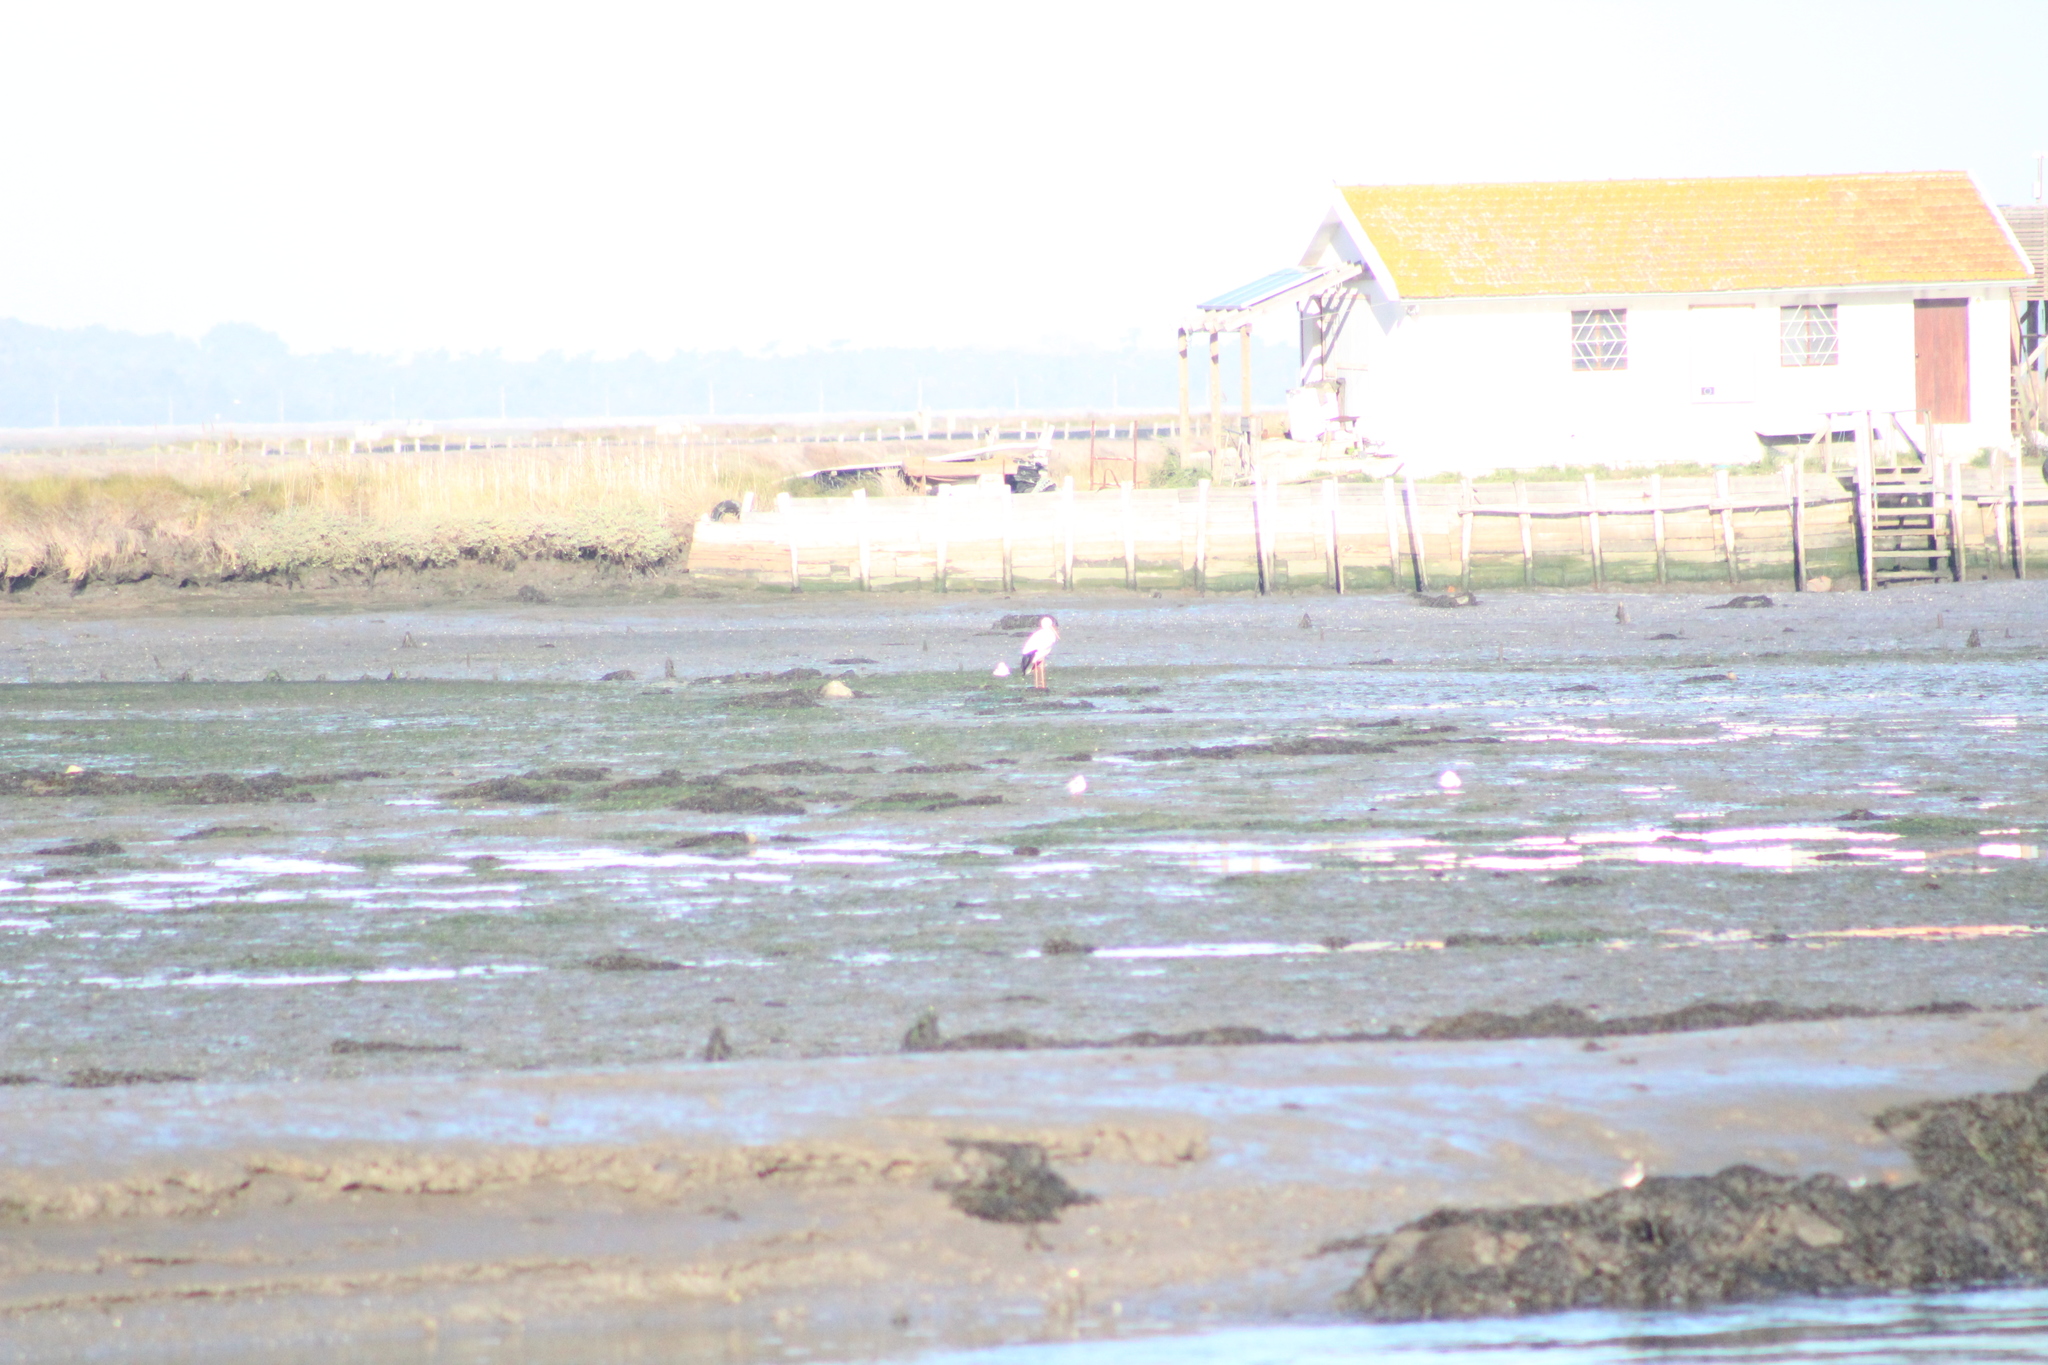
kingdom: Animalia
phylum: Chordata
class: Aves
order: Ciconiiformes
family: Ciconiidae
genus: Ciconia
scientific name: Ciconia ciconia
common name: White stork
